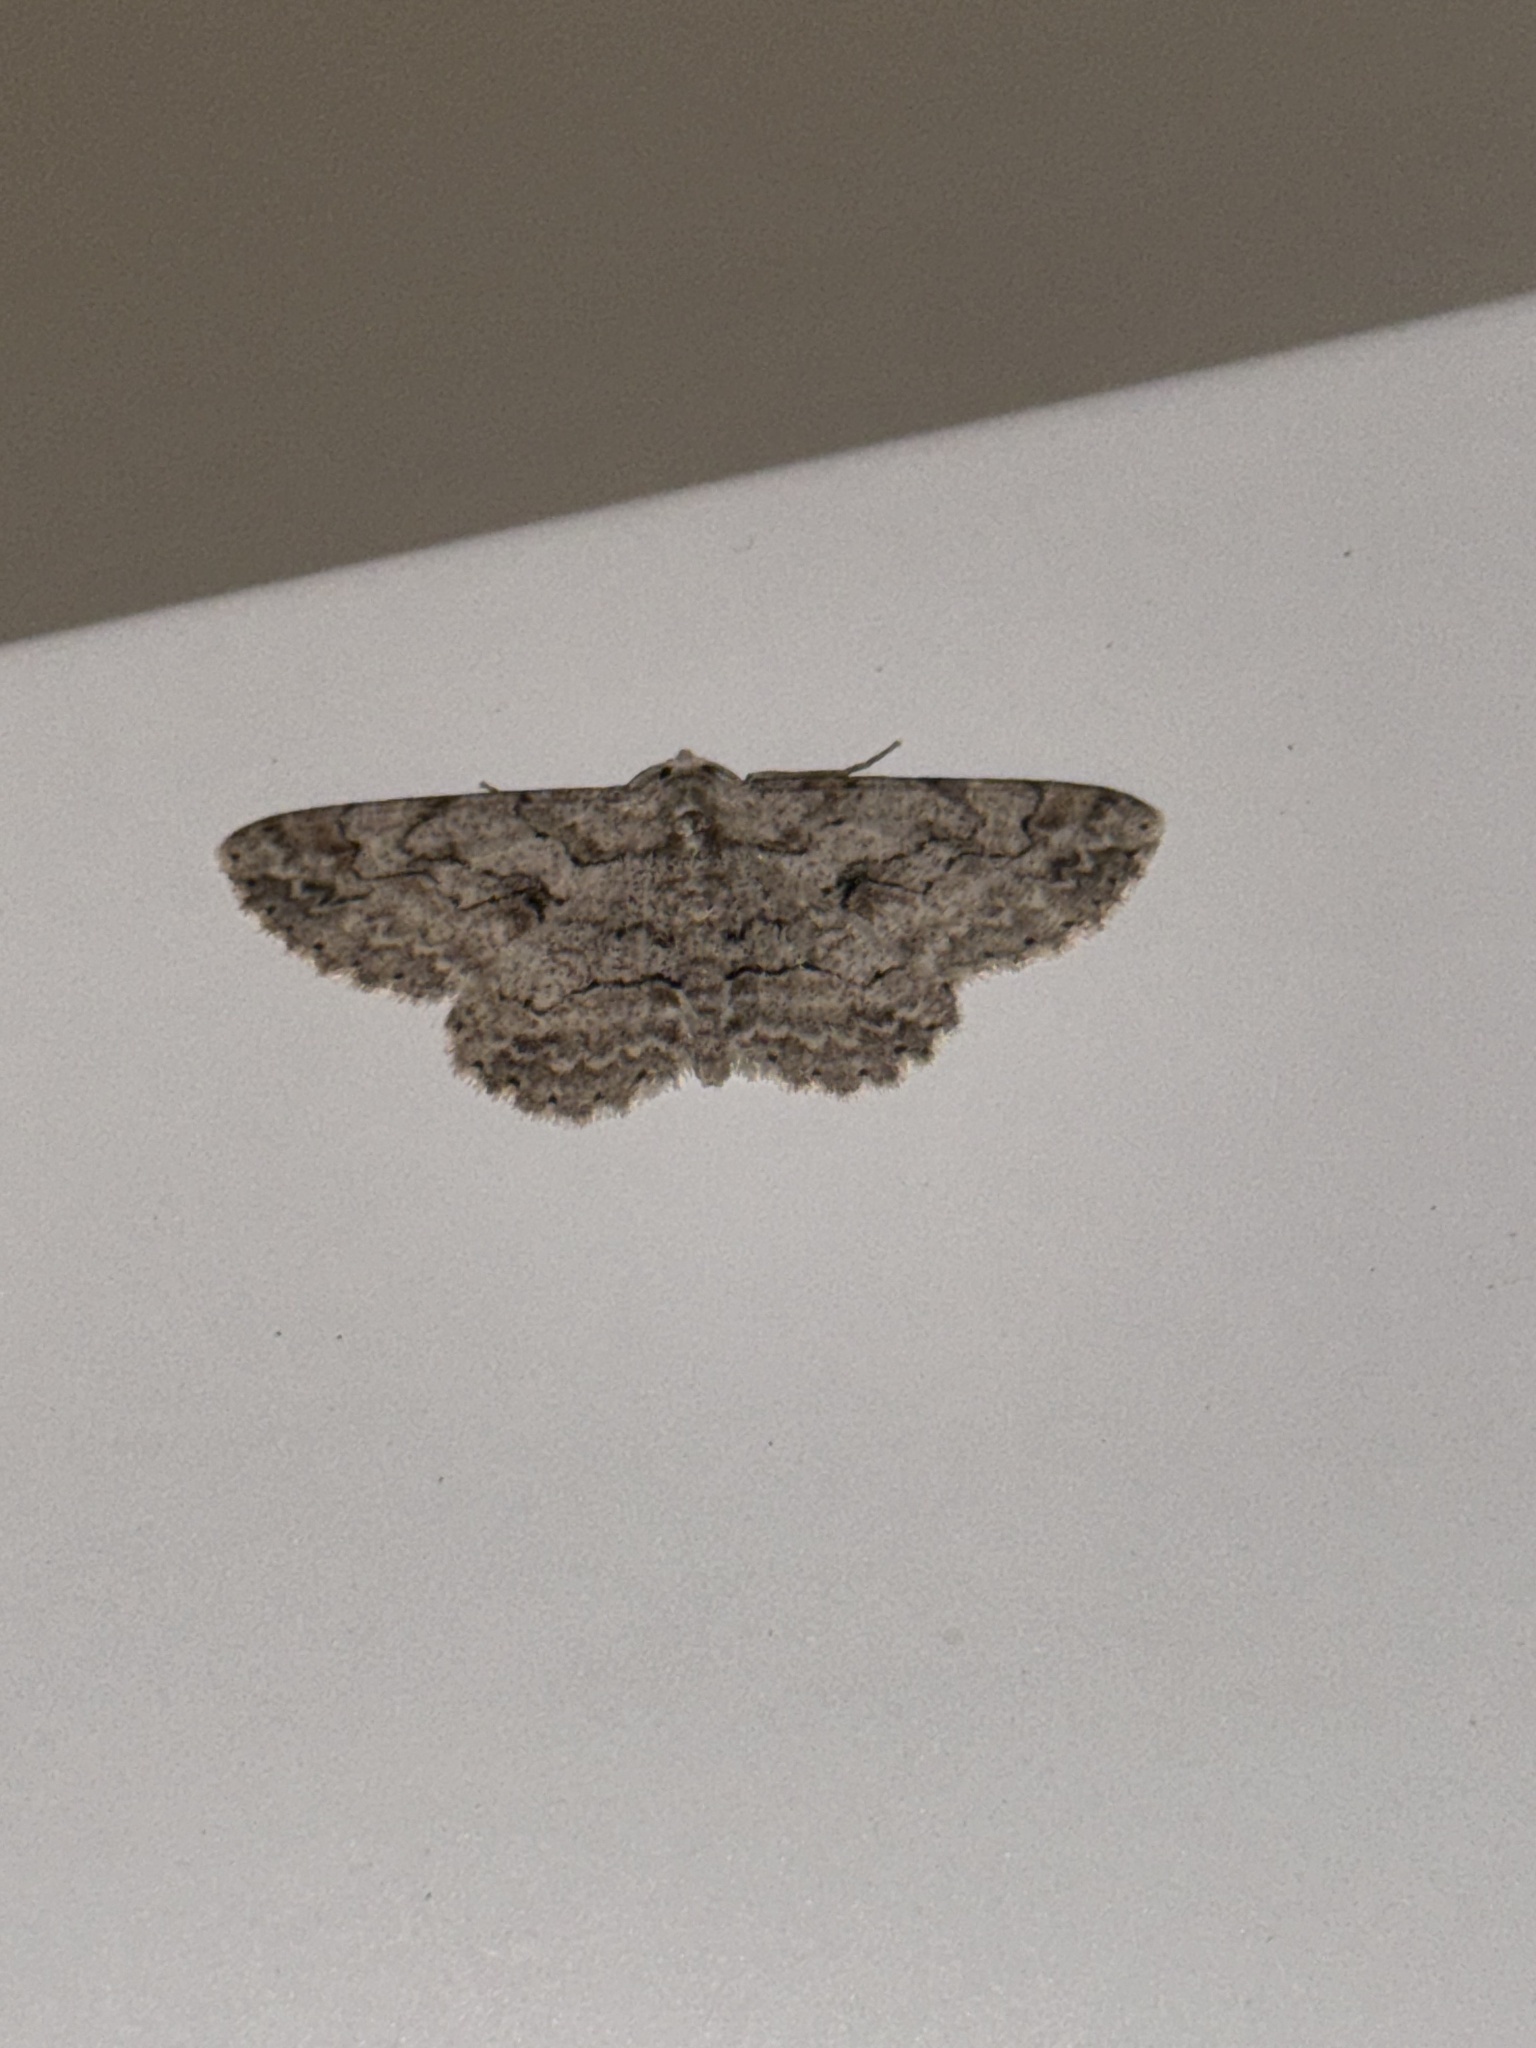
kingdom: Animalia
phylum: Arthropoda
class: Insecta
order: Lepidoptera
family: Geometridae
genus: Iridopsis
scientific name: Iridopsis defectaria
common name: Brown-shaded gray
